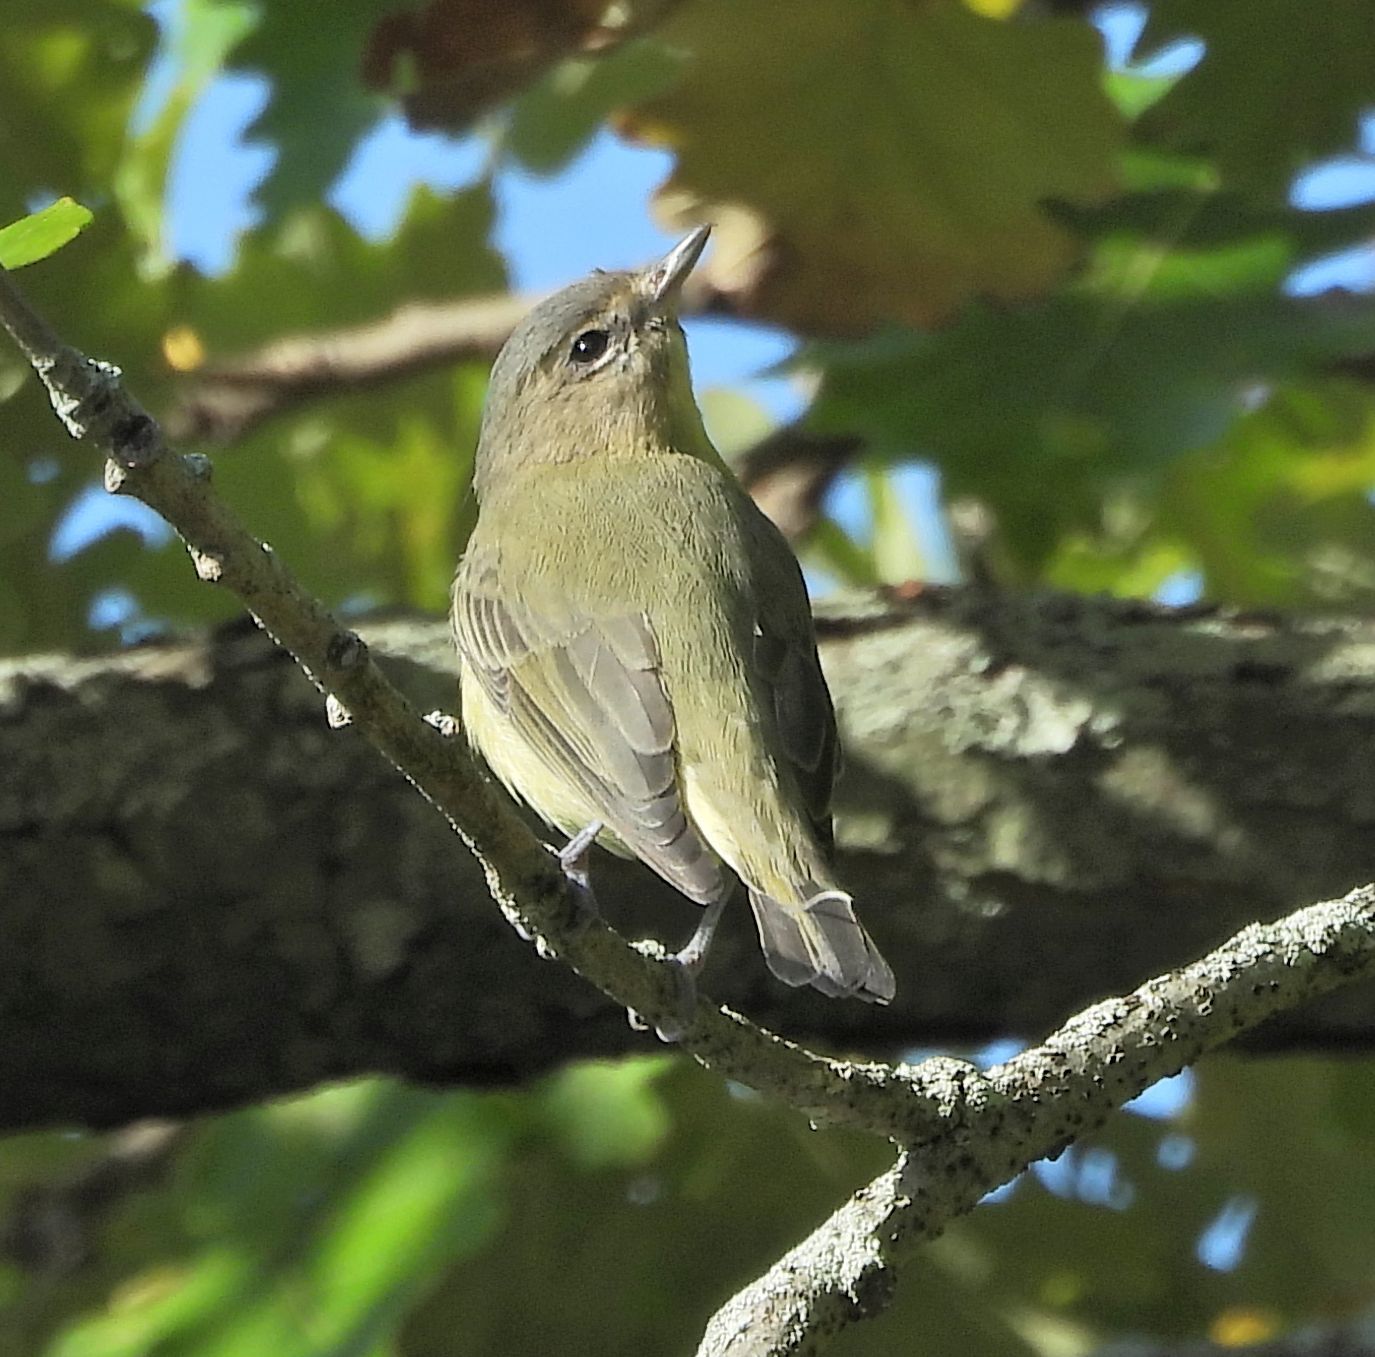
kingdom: Animalia
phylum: Chordata
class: Aves
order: Passeriformes
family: Vireonidae
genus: Vireo
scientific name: Vireo philadelphicus
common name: Philadelphia vireo
